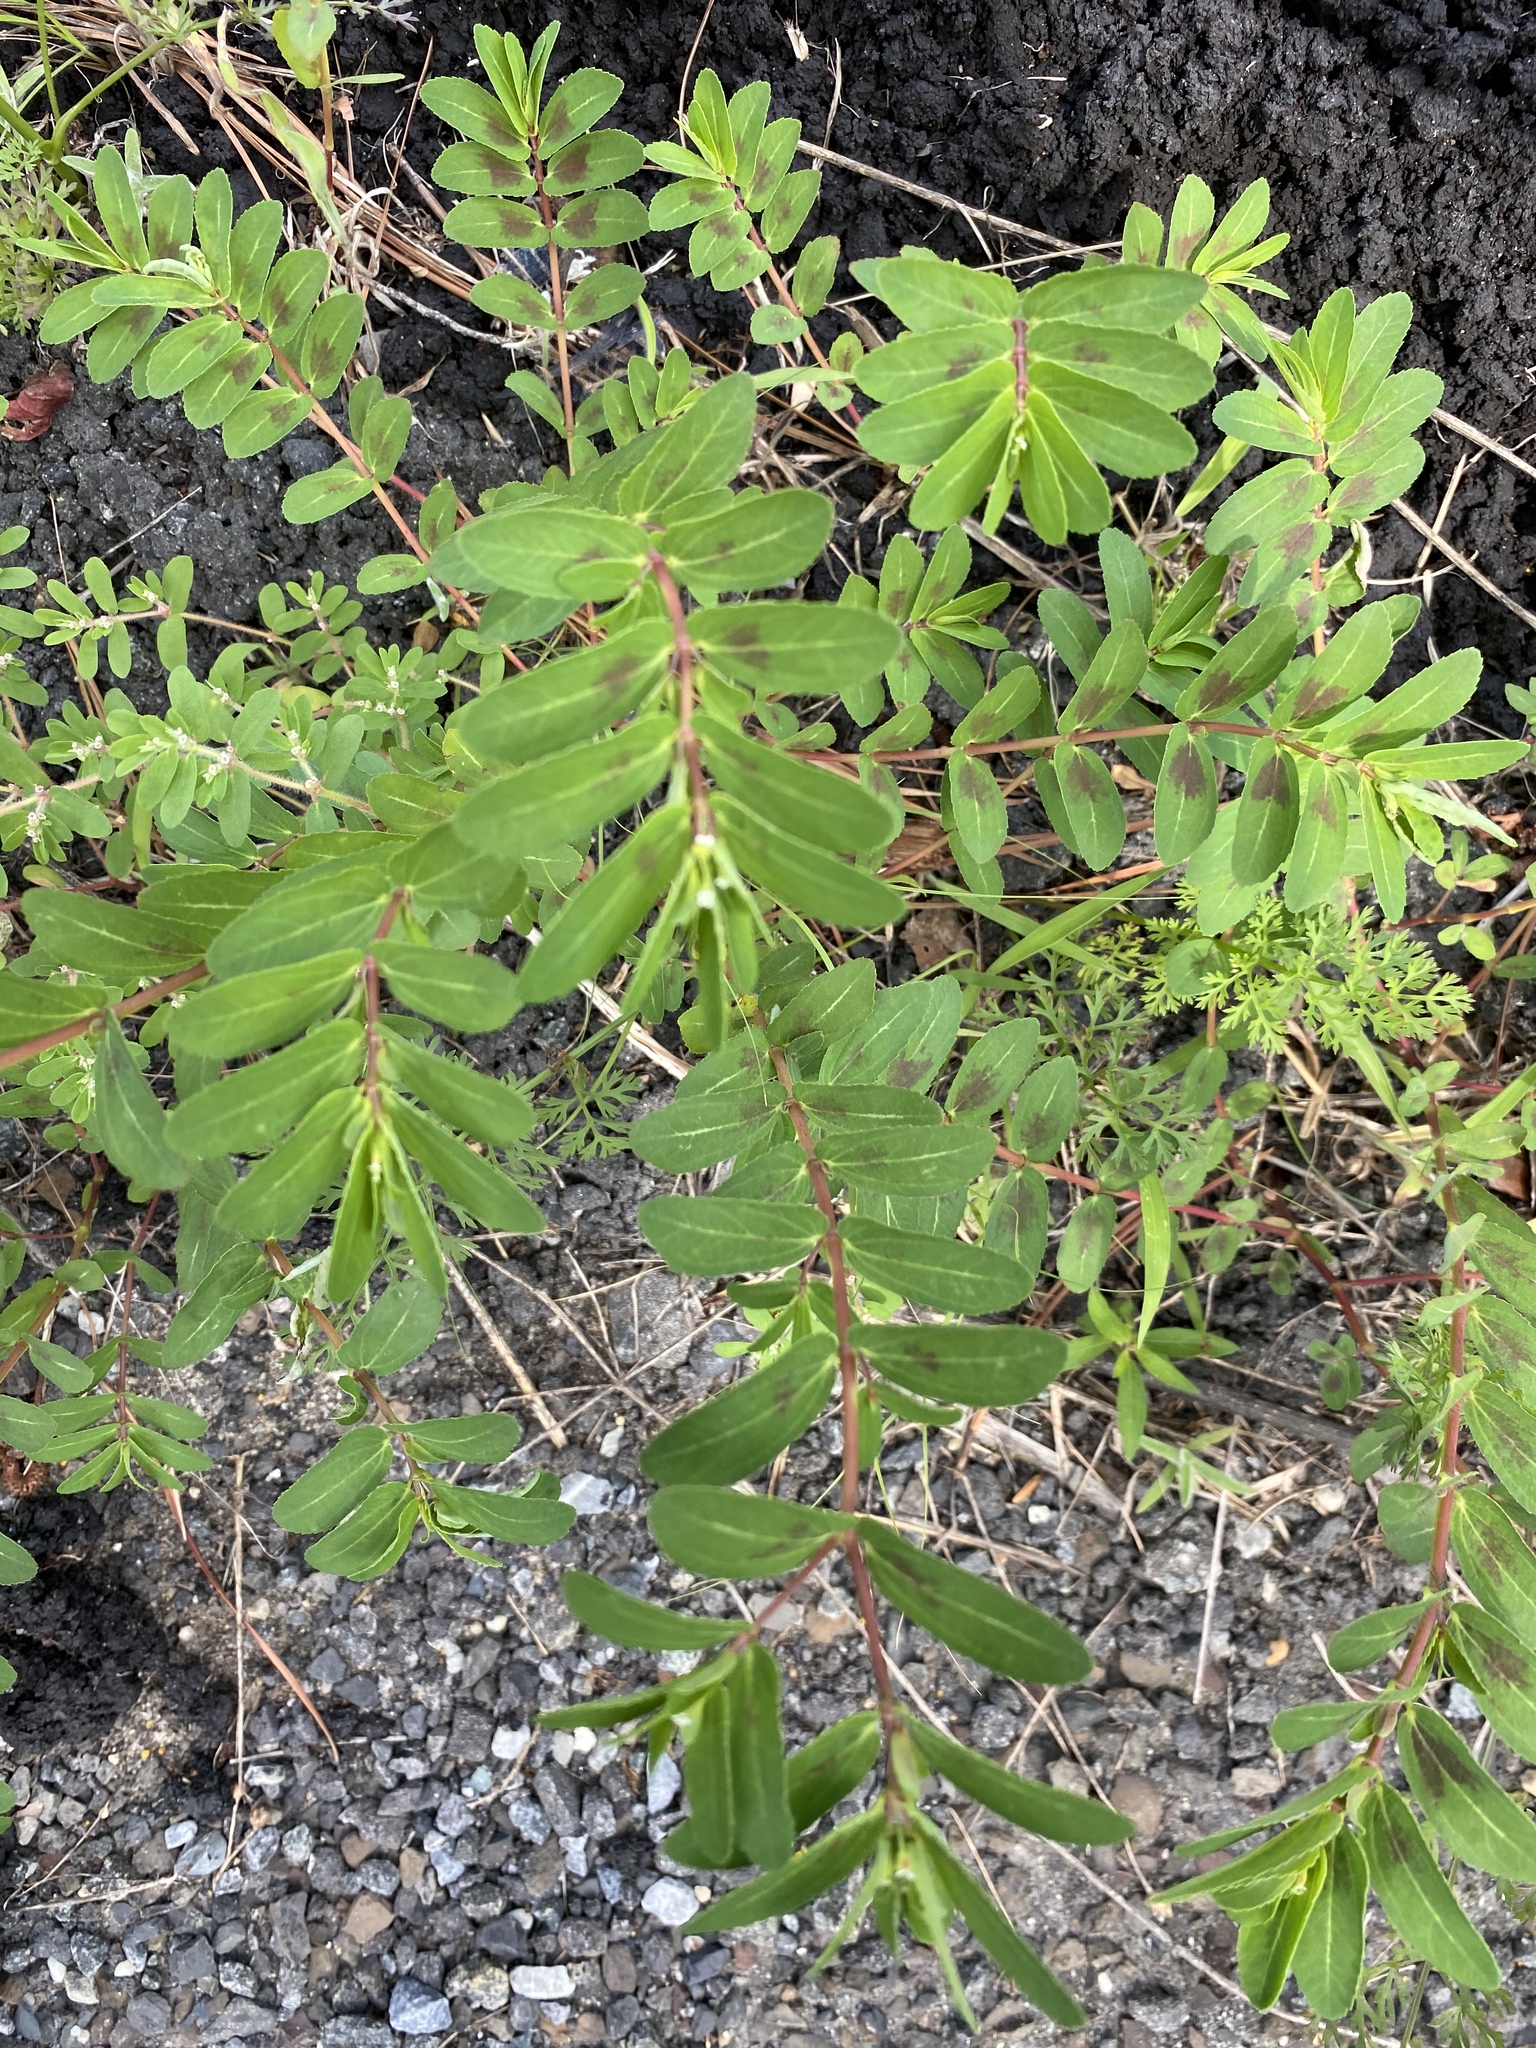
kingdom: Plantae
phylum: Tracheophyta
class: Magnoliopsida
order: Malpighiales
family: Euphorbiaceae
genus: Euphorbia
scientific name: Euphorbia nutans
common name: Eyebane
